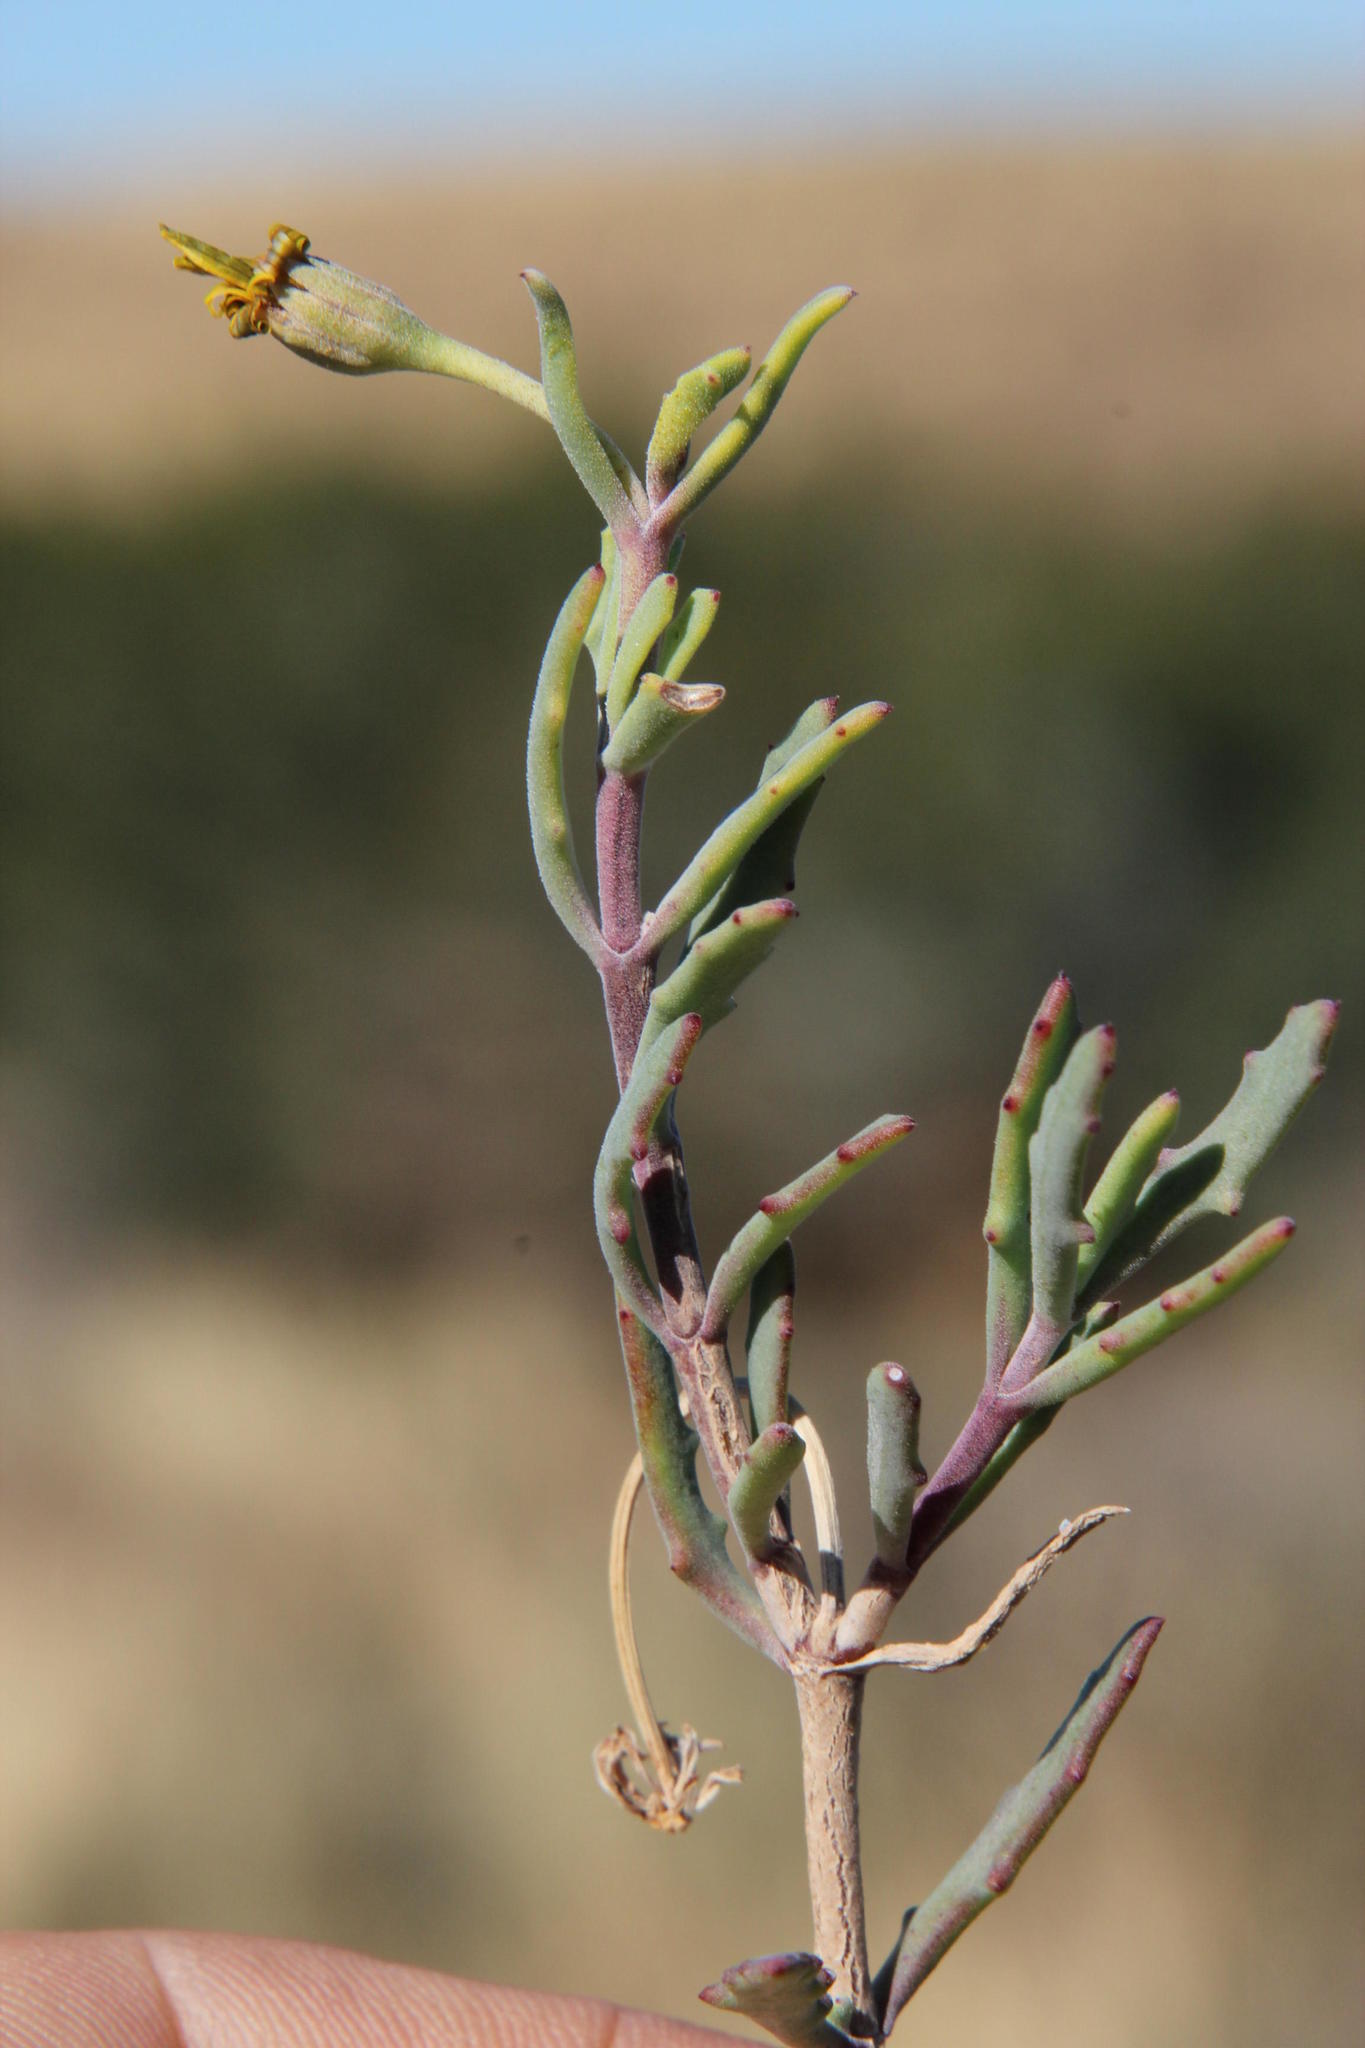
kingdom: Plantae
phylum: Tracheophyta
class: Magnoliopsida
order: Asterales
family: Asteraceae
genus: Osteospermum
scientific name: Osteospermum sinuatum
